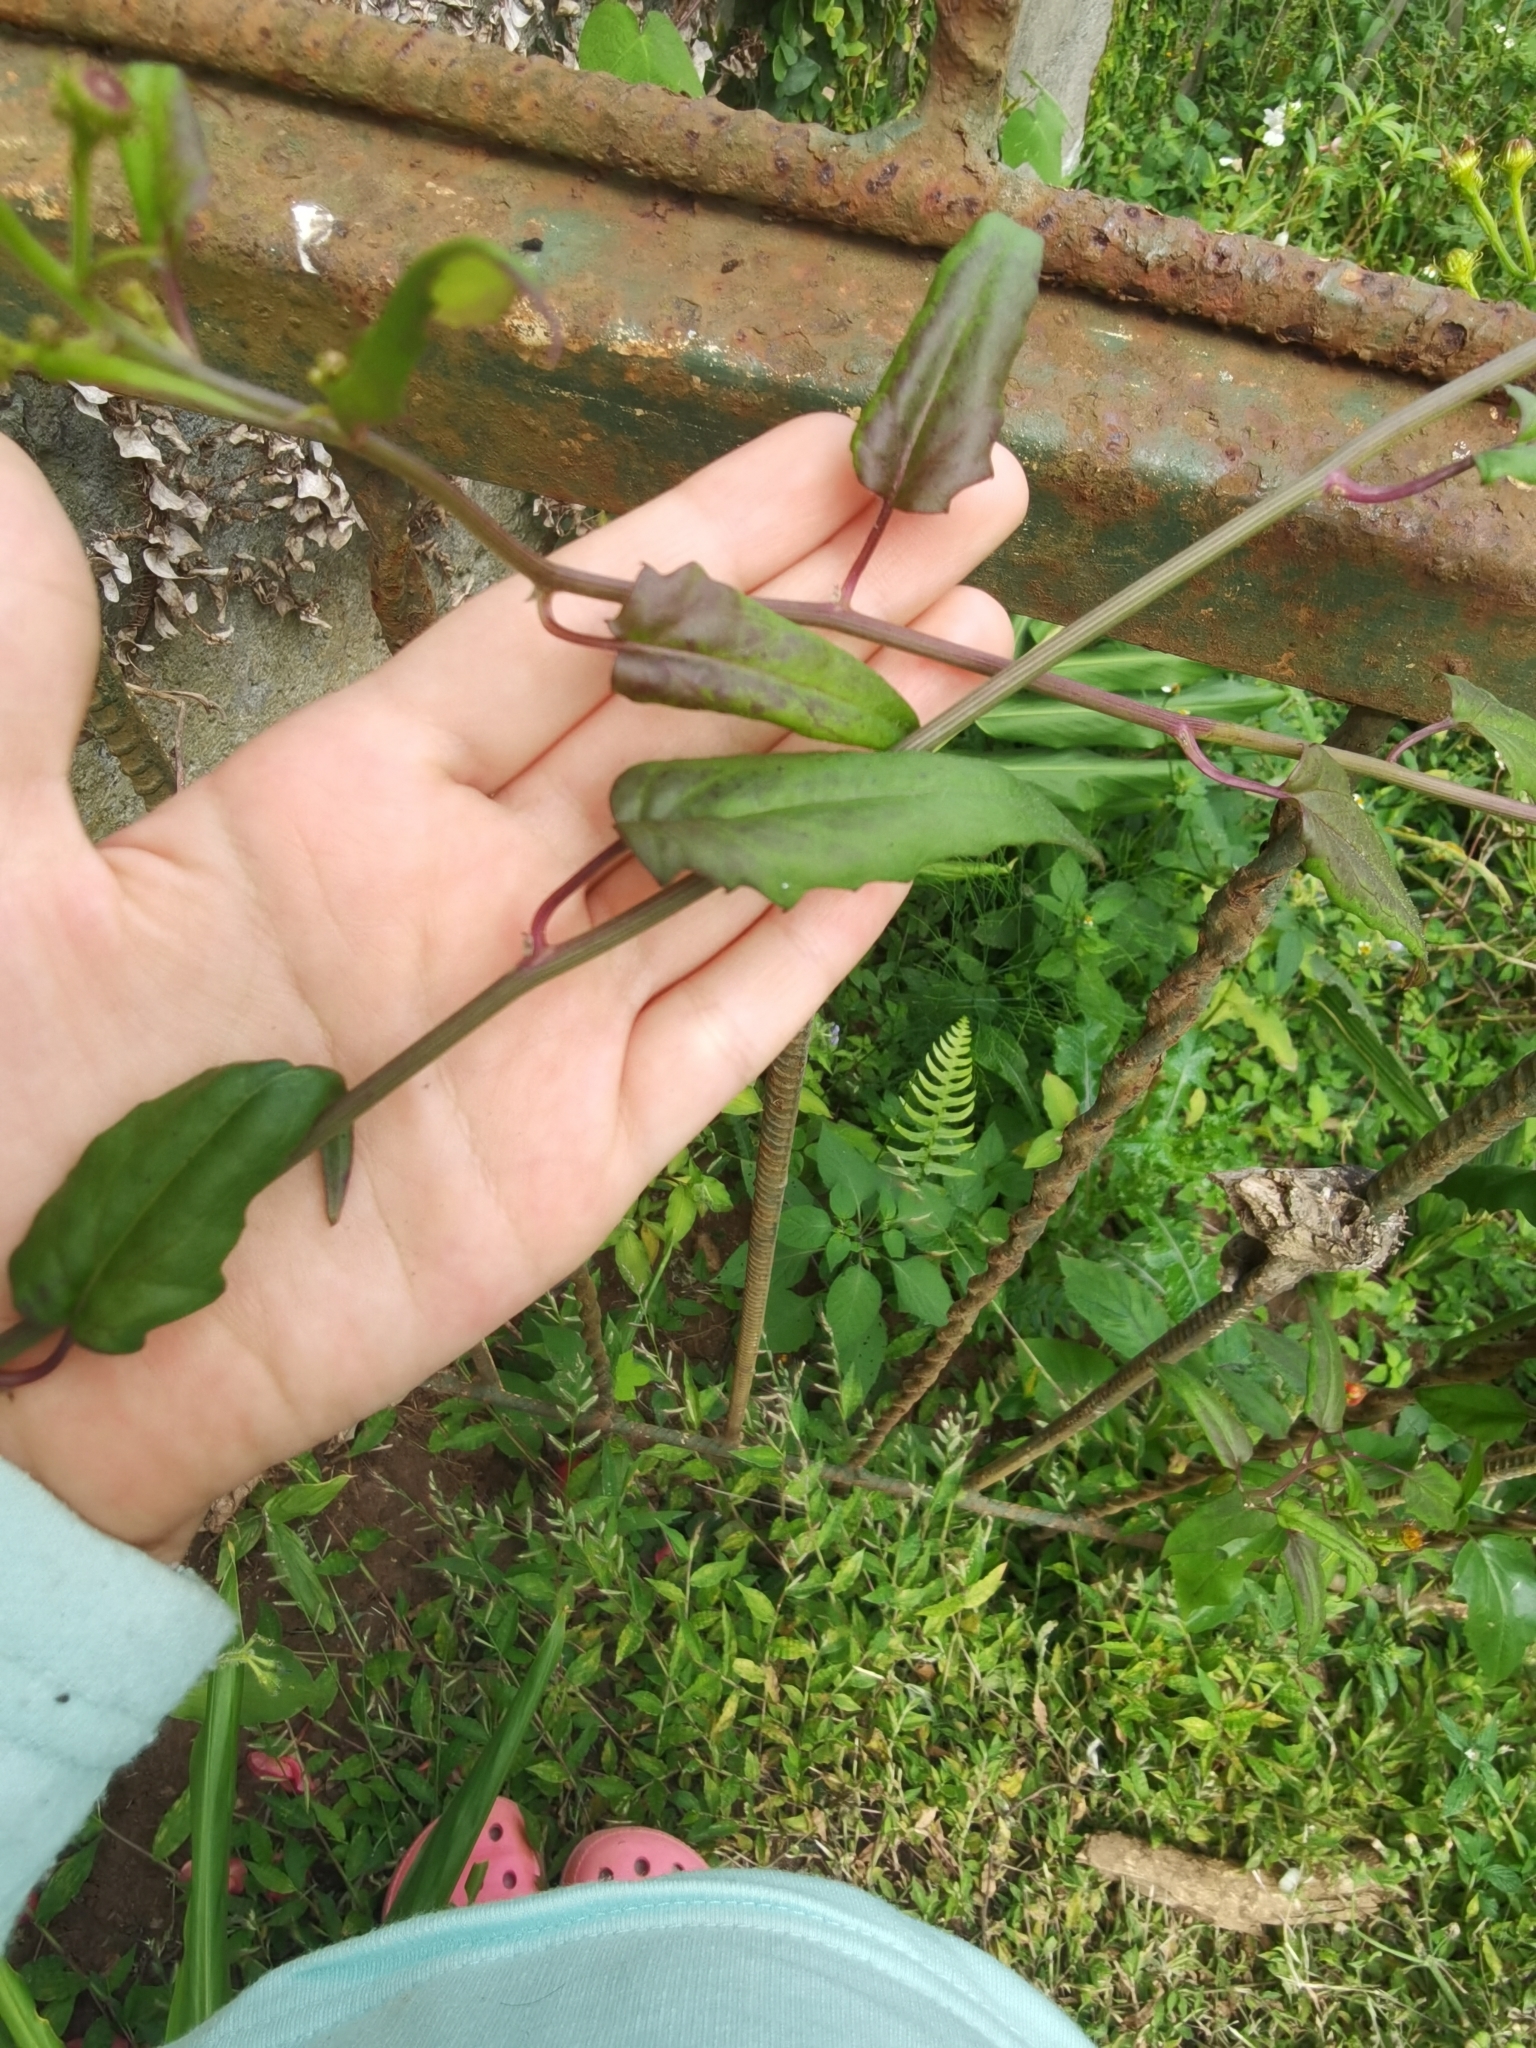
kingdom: Plantae
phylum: Tracheophyta
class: Magnoliopsida
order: Asterales
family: Asteraceae
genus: Pseudogynoxys
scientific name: Pseudogynoxys chenopodioides
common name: Mexican flamevine
